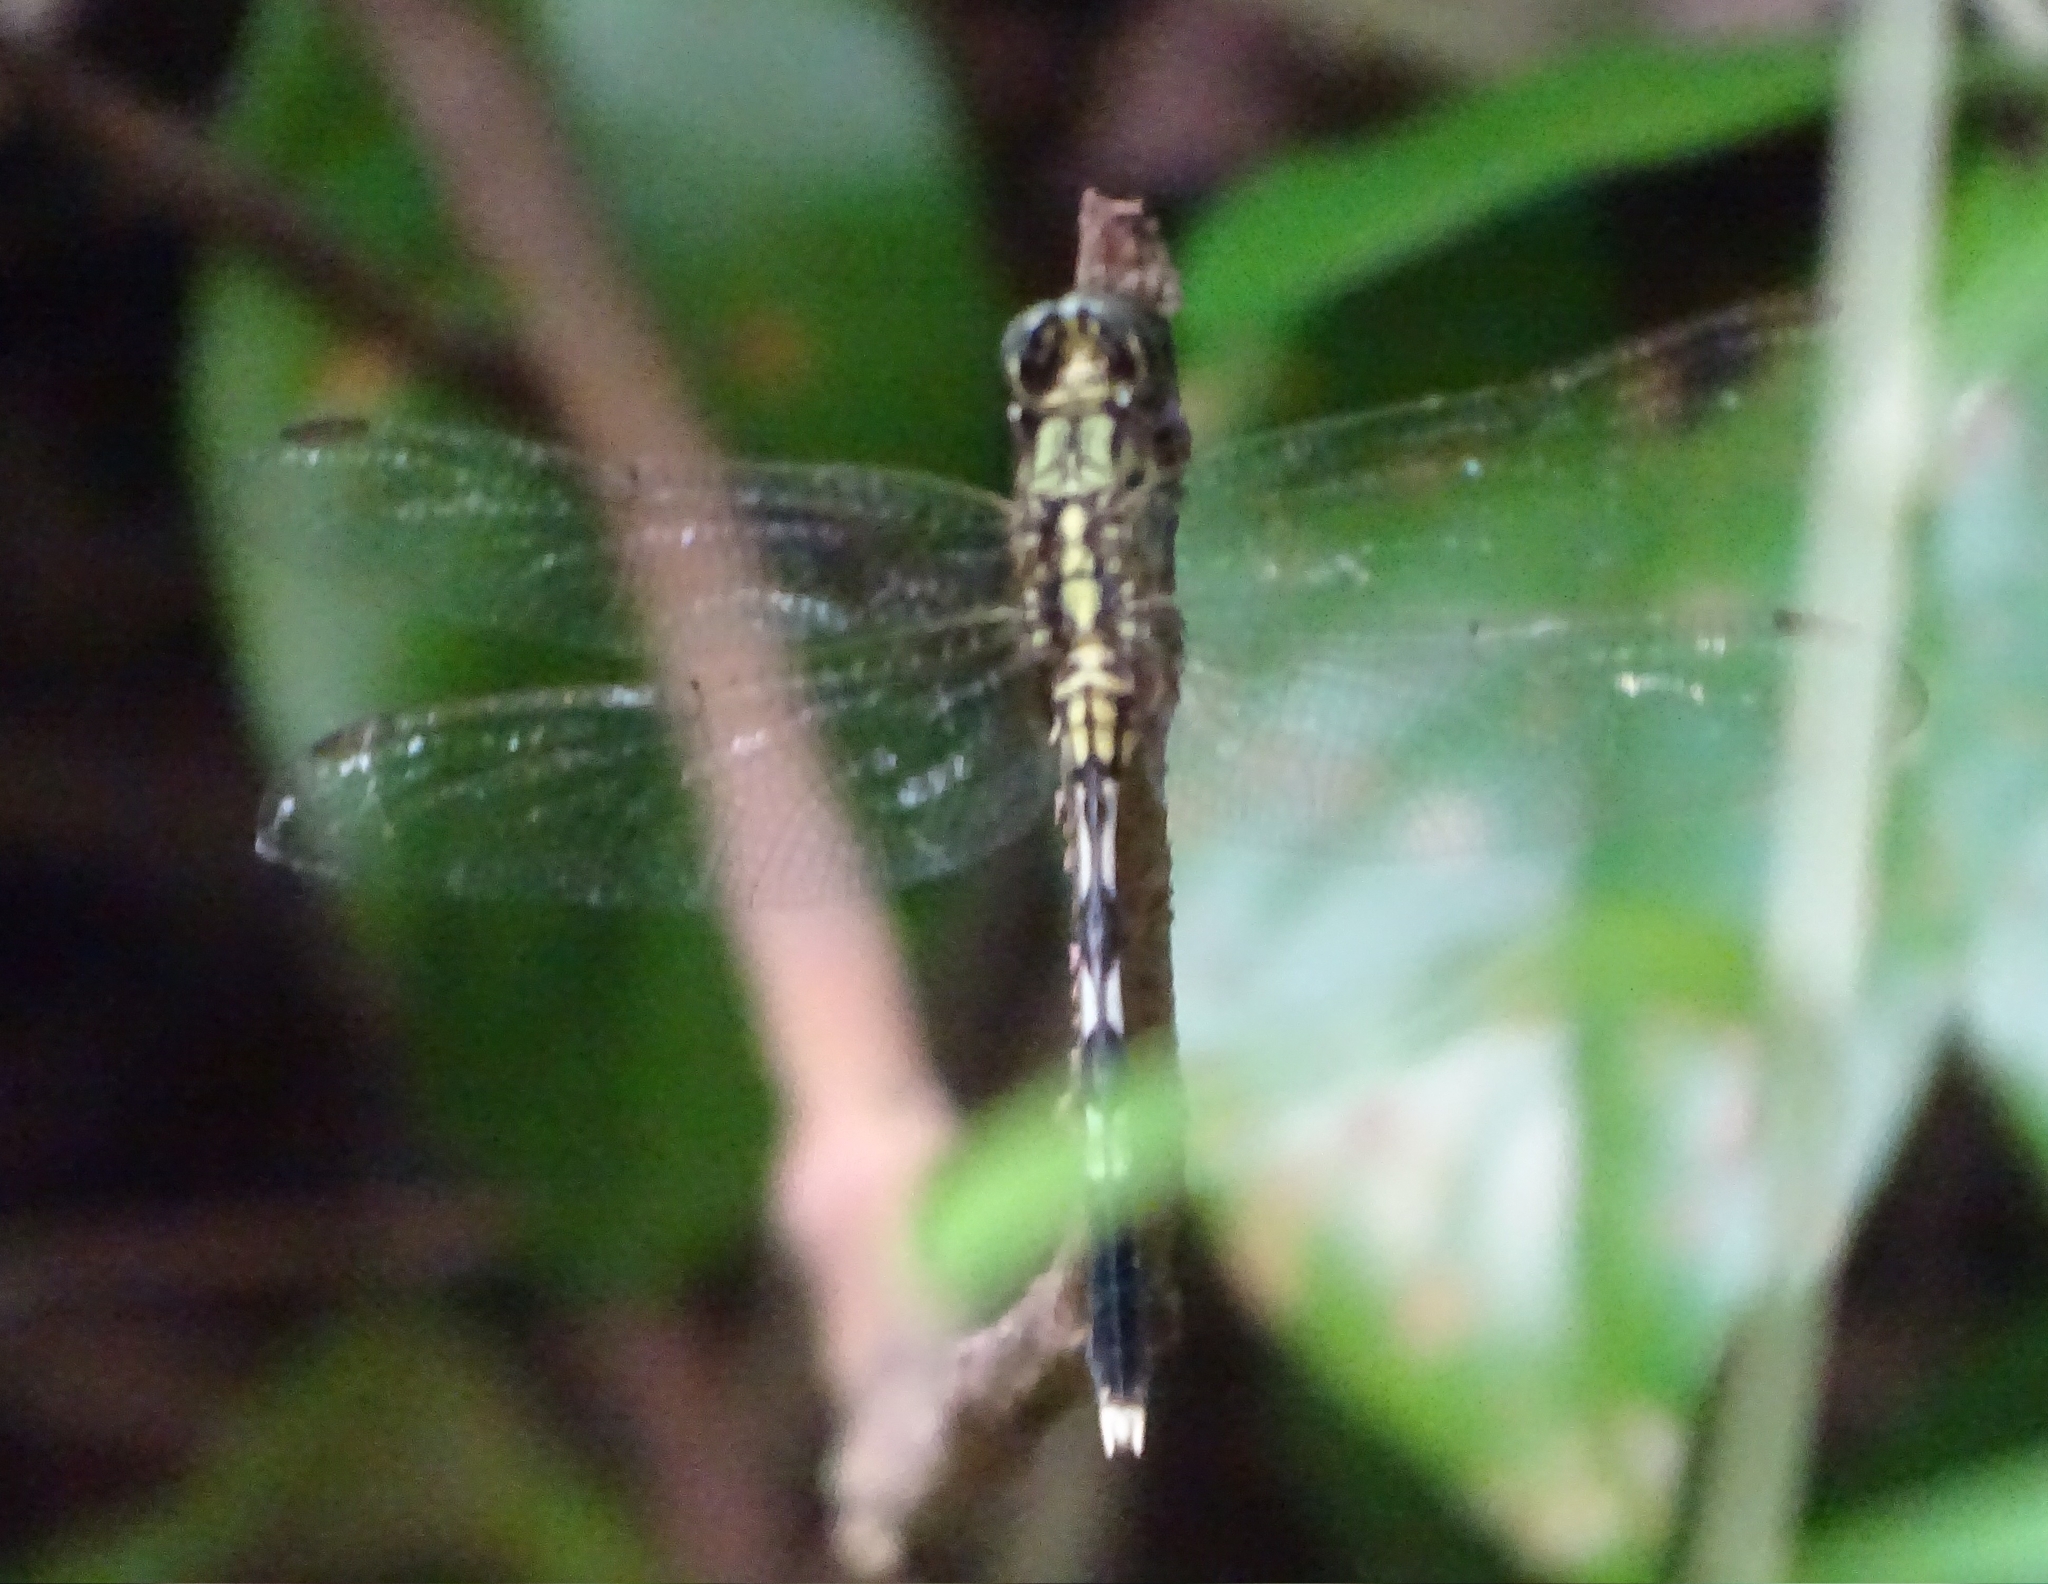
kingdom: Animalia
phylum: Arthropoda
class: Insecta
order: Odonata
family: Libellulidae
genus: Orthetrum
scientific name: Orthetrum sabina
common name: Slender skimmer
